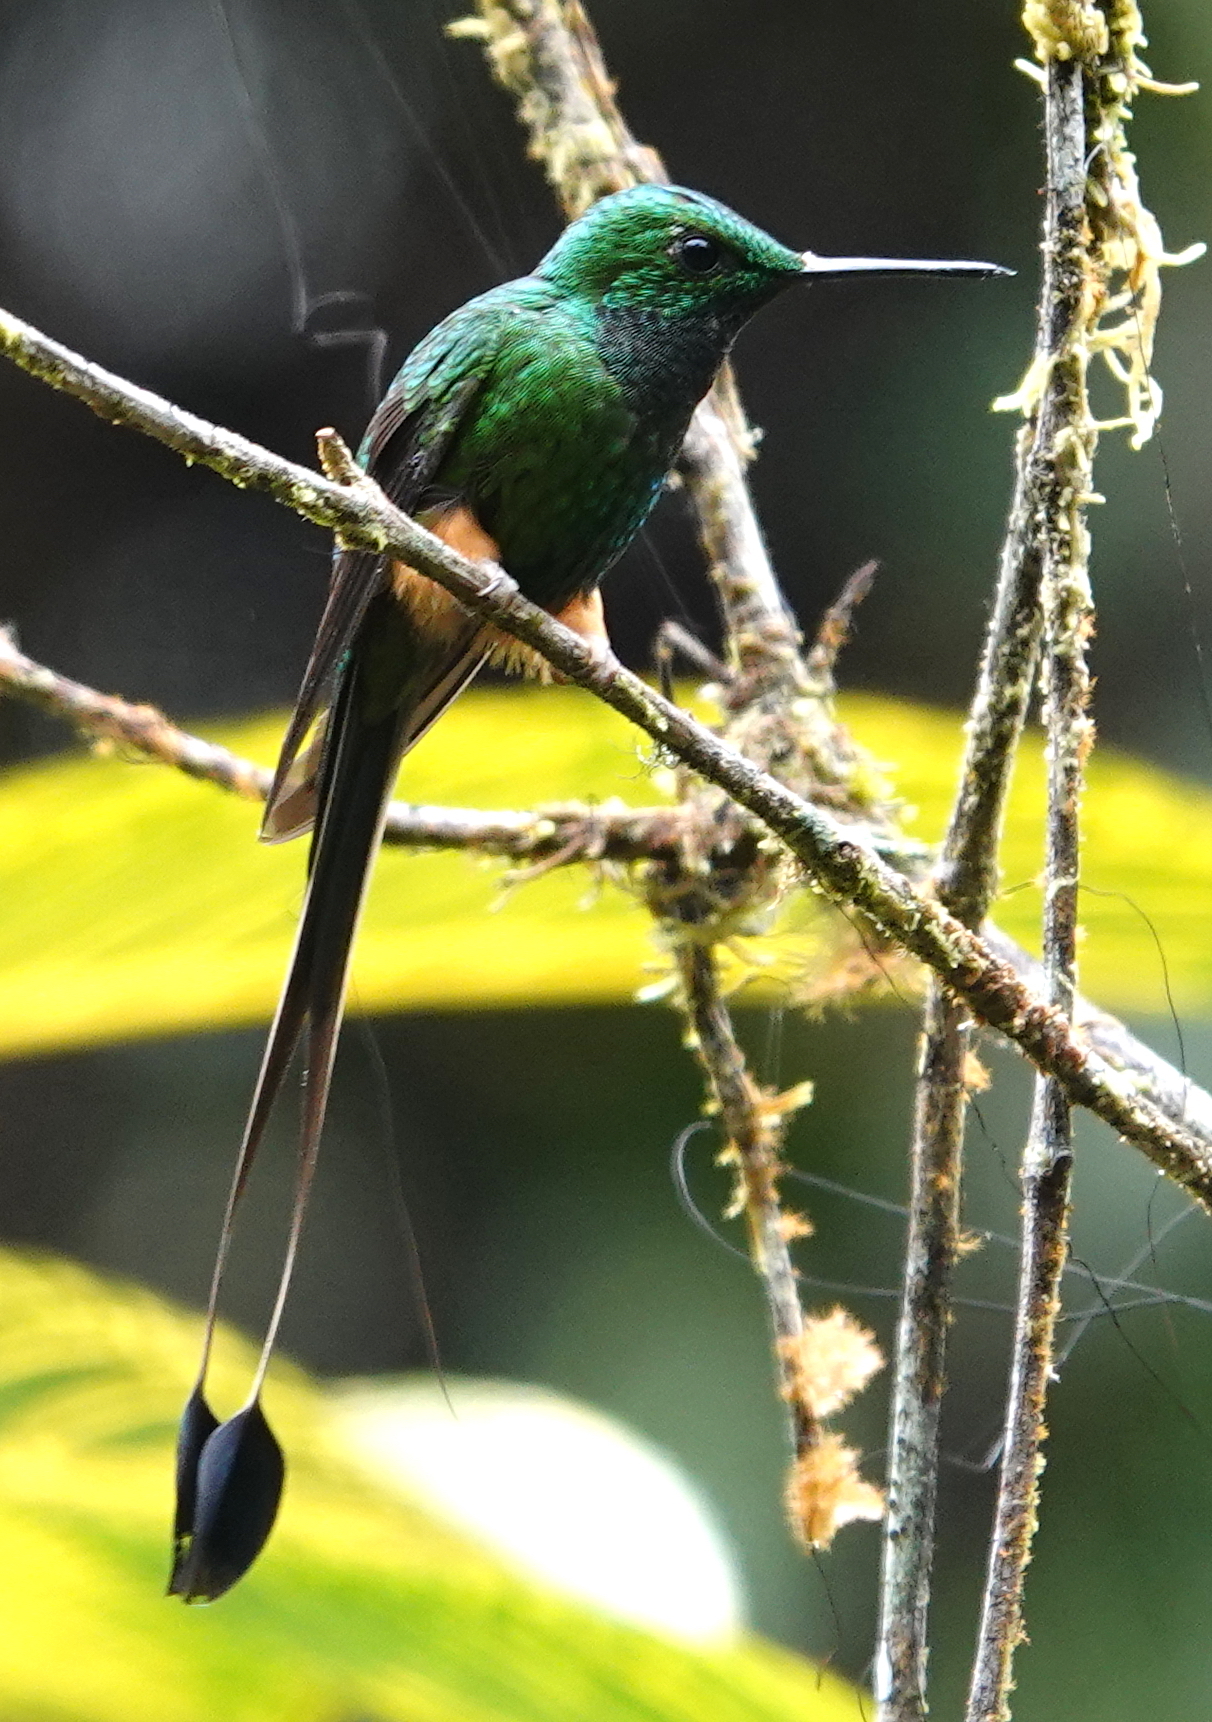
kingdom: Animalia
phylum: Chordata
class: Aves
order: Apodiformes
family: Trochilidae
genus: Ocreatus
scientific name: Ocreatus peruanus
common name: Peruvian racket-tail
